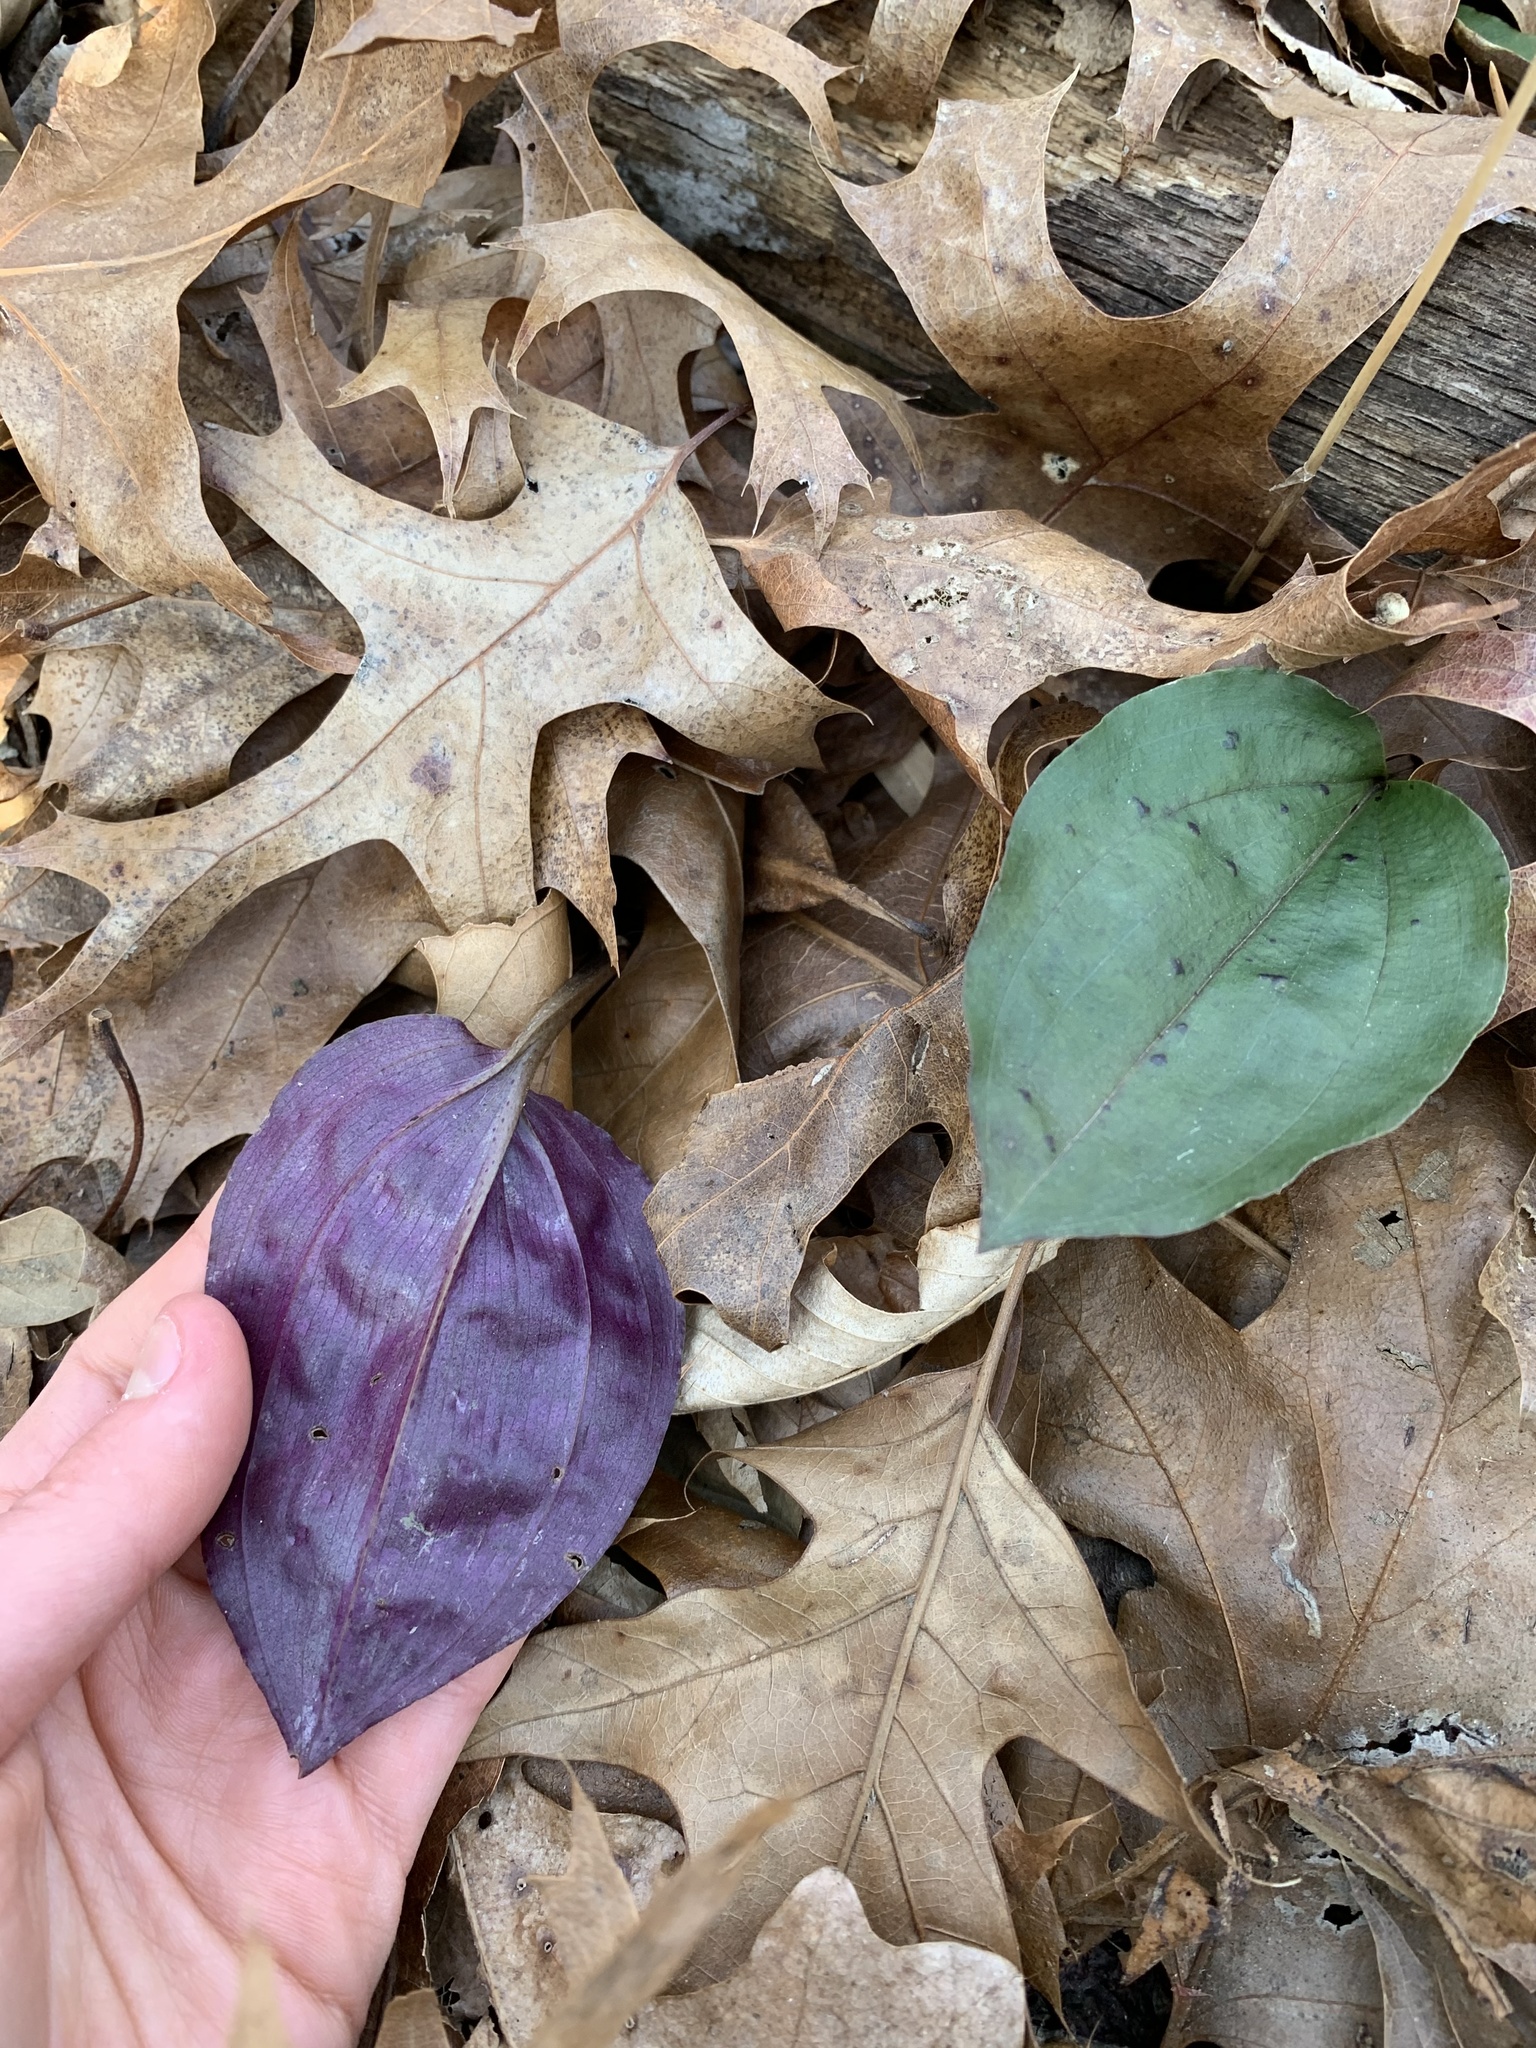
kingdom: Plantae
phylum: Tracheophyta
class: Liliopsida
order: Asparagales
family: Orchidaceae
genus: Tipularia
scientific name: Tipularia discolor
